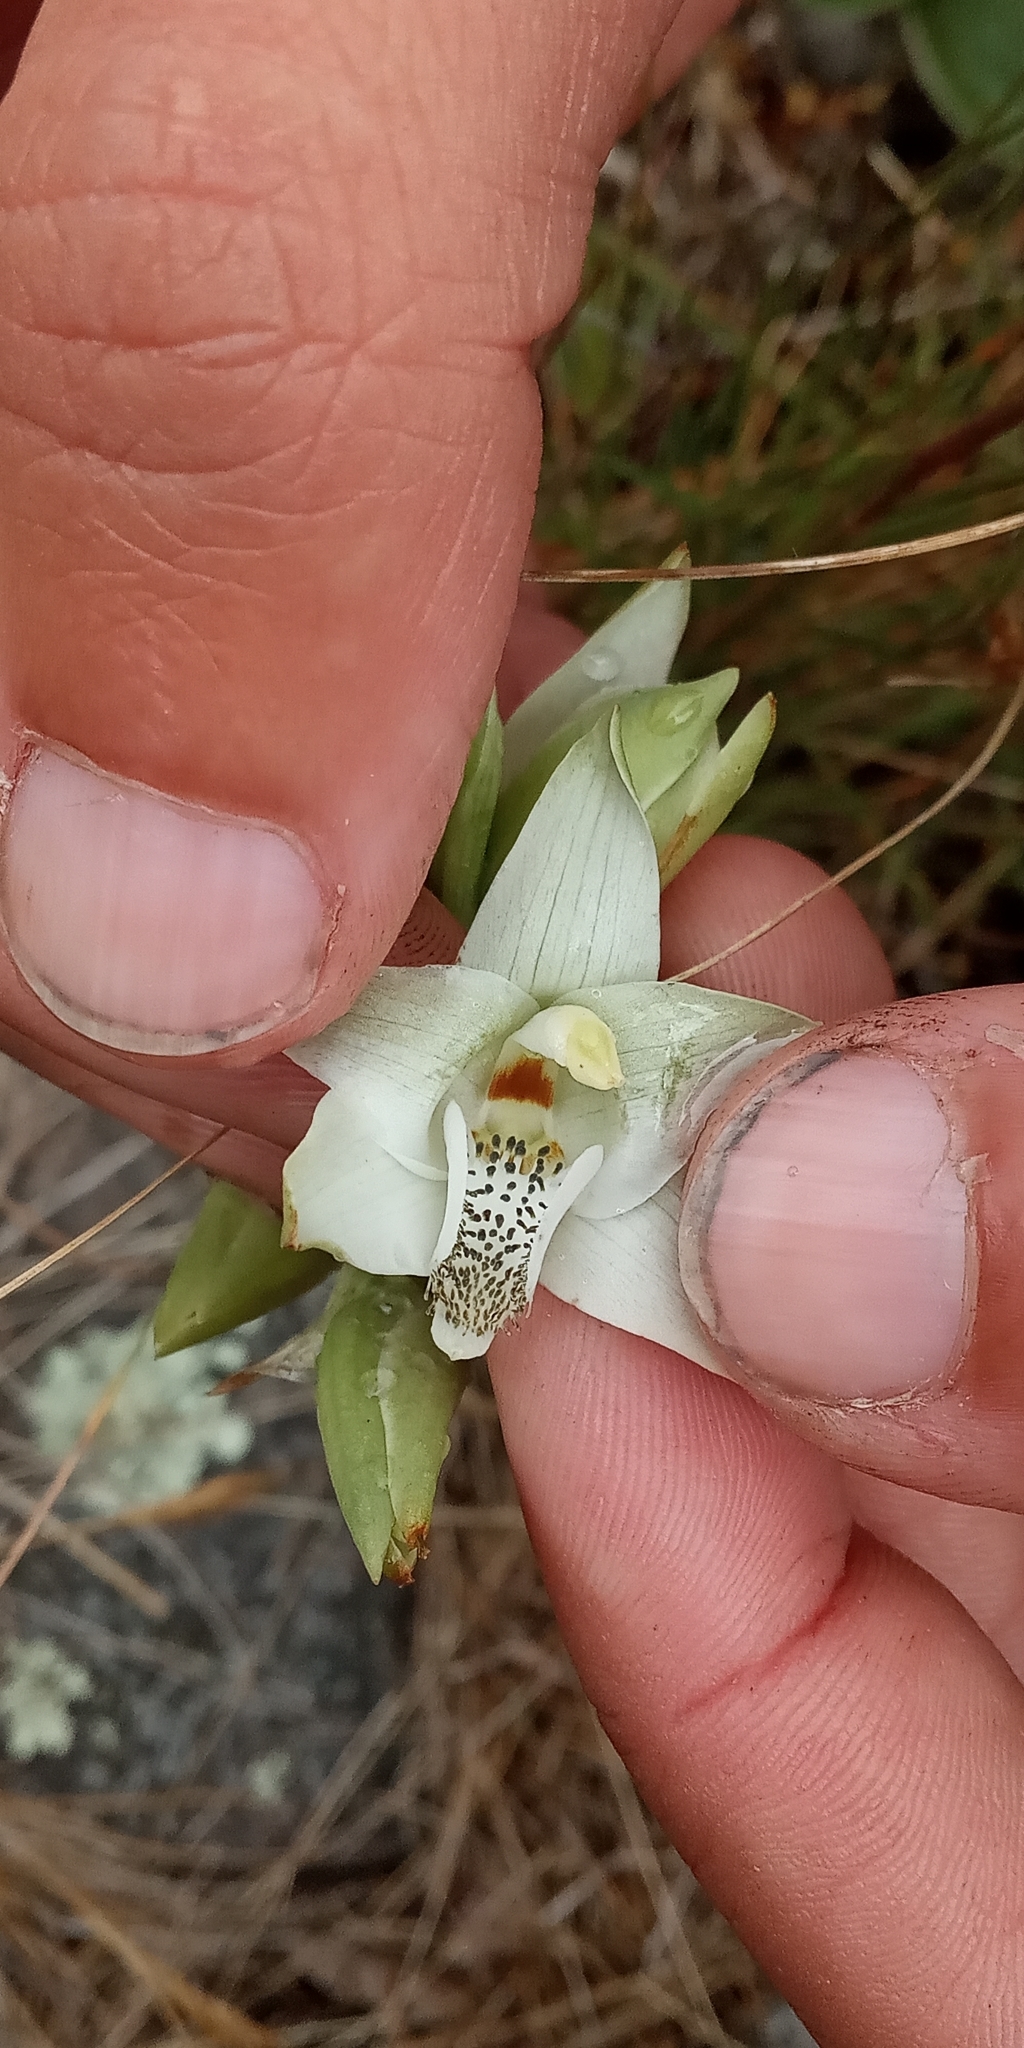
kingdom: Plantae
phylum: Tracheophyta
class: Liliopsida
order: Asparagales
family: Orchidaceae
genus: Chloraea
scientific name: Chloraea membranacea
